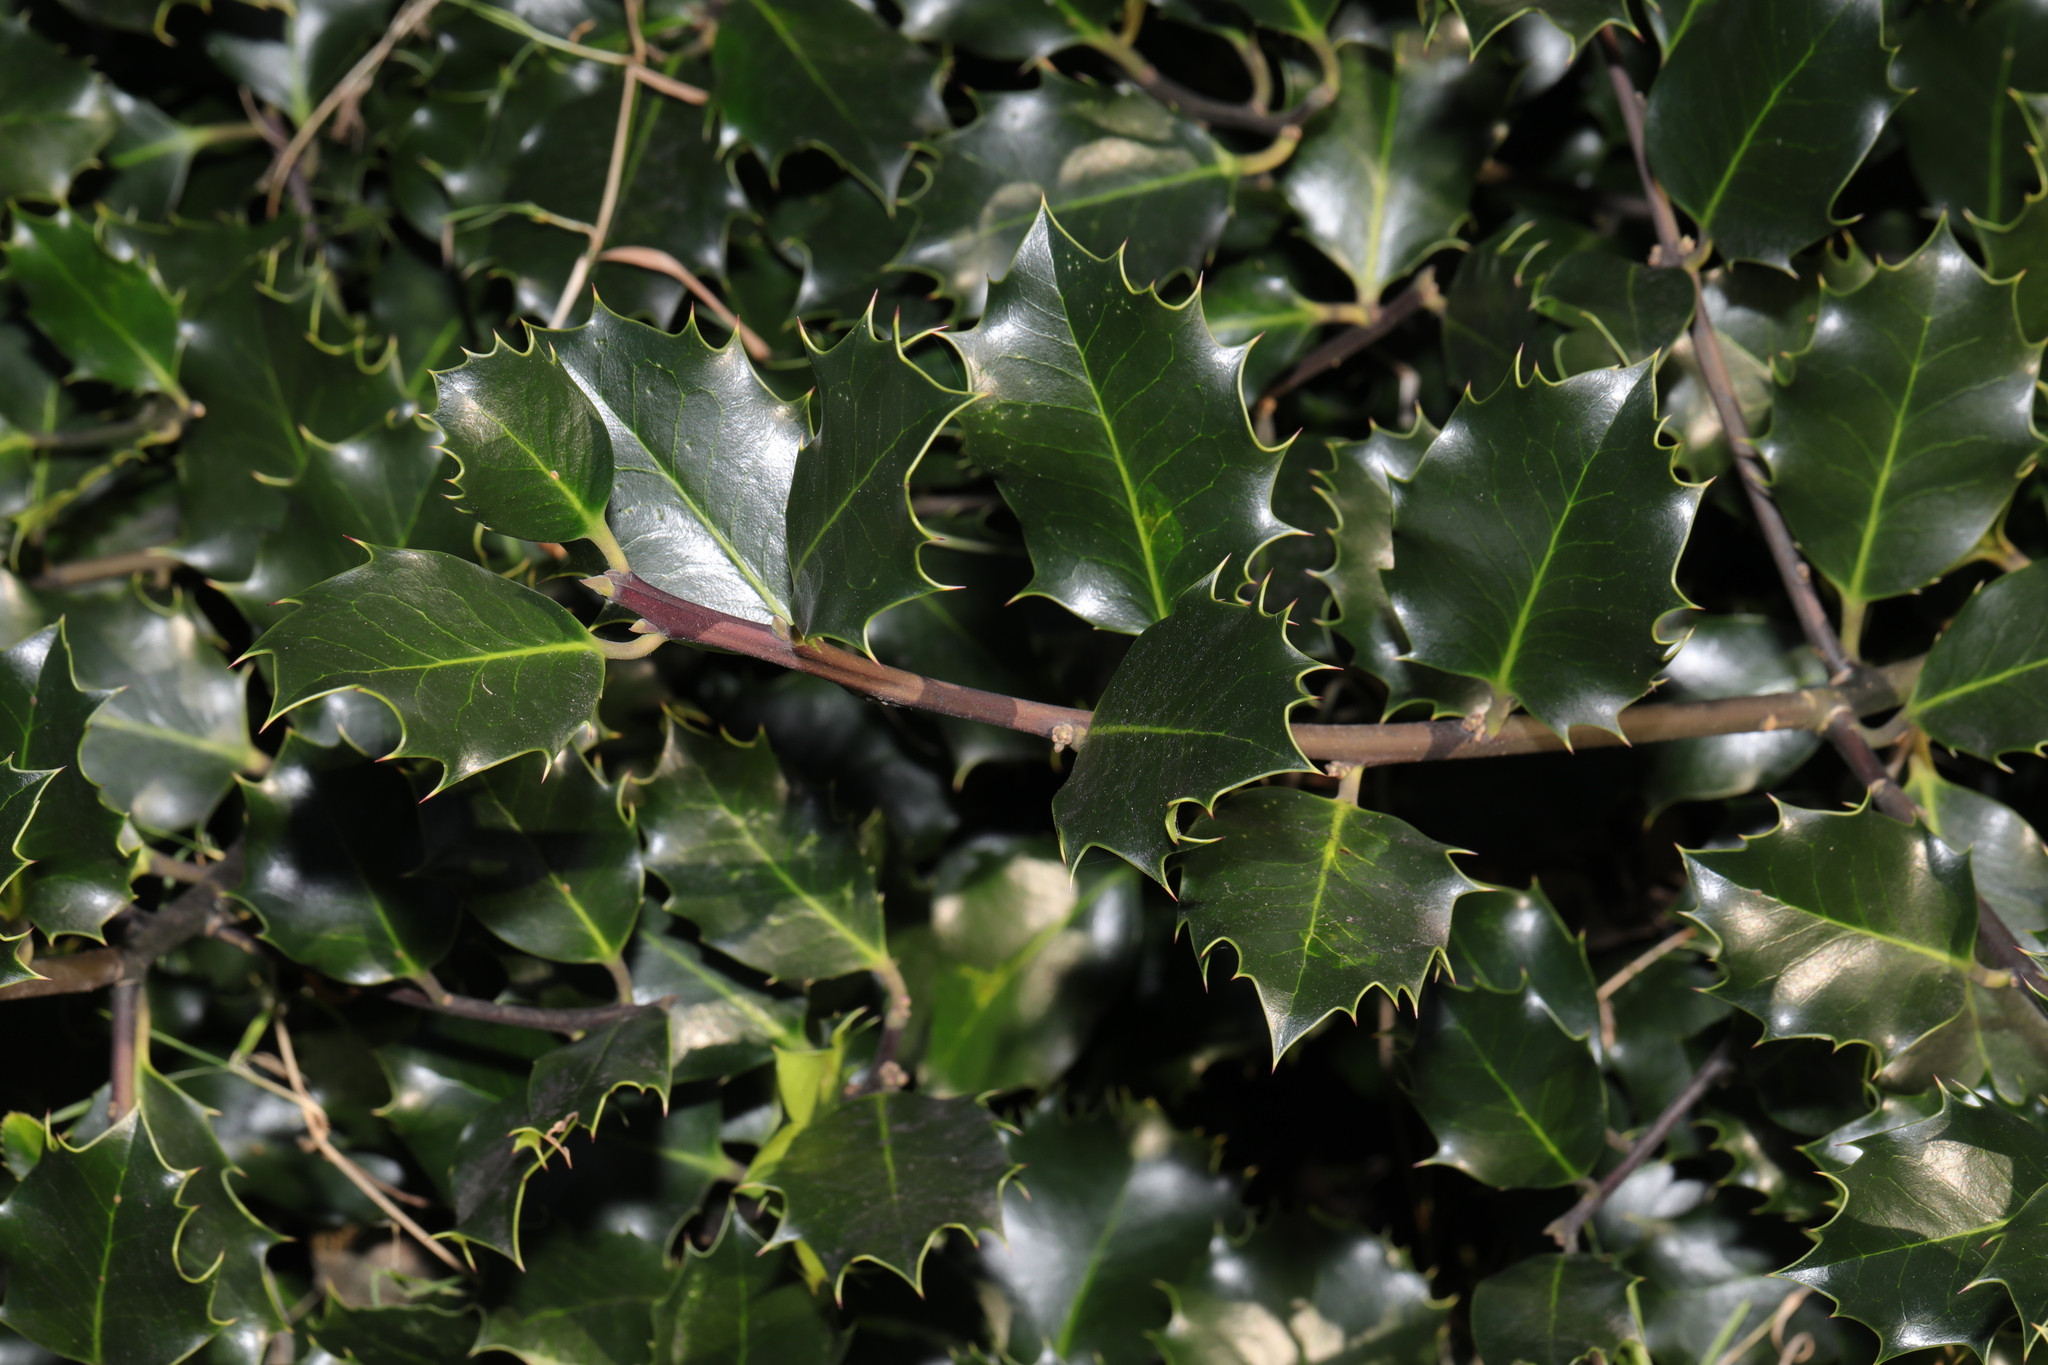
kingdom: Plantae
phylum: Tracheophyta
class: Magnoliopsida
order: Aquifoliales
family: Aquifoliaceae
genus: Ilex
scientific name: Ilex aquifolium
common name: English holly
